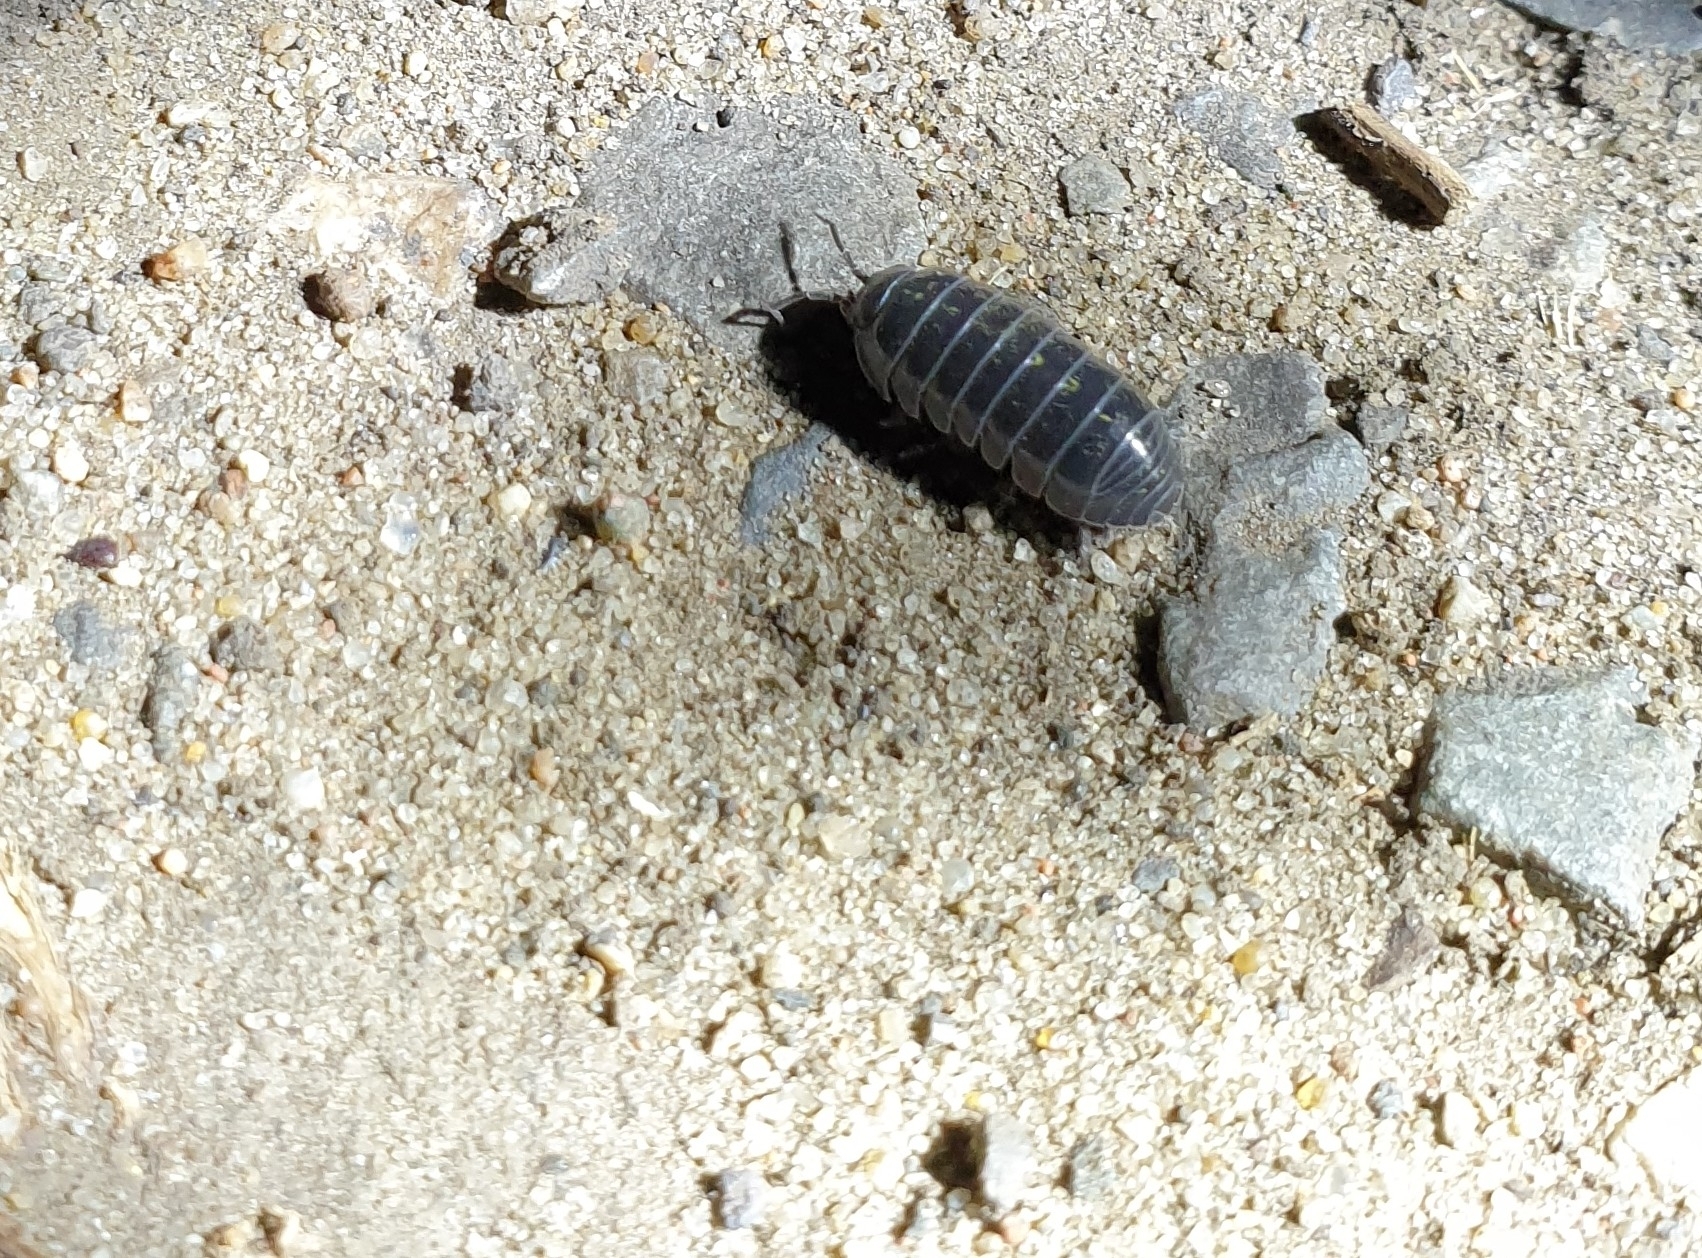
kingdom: Animalia
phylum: Arthropoda
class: Malacostraca
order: Isopoda
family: Armadillidiidae
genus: Armadillidium
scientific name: Armadillidium vulgare
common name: Common pill woodlouse
